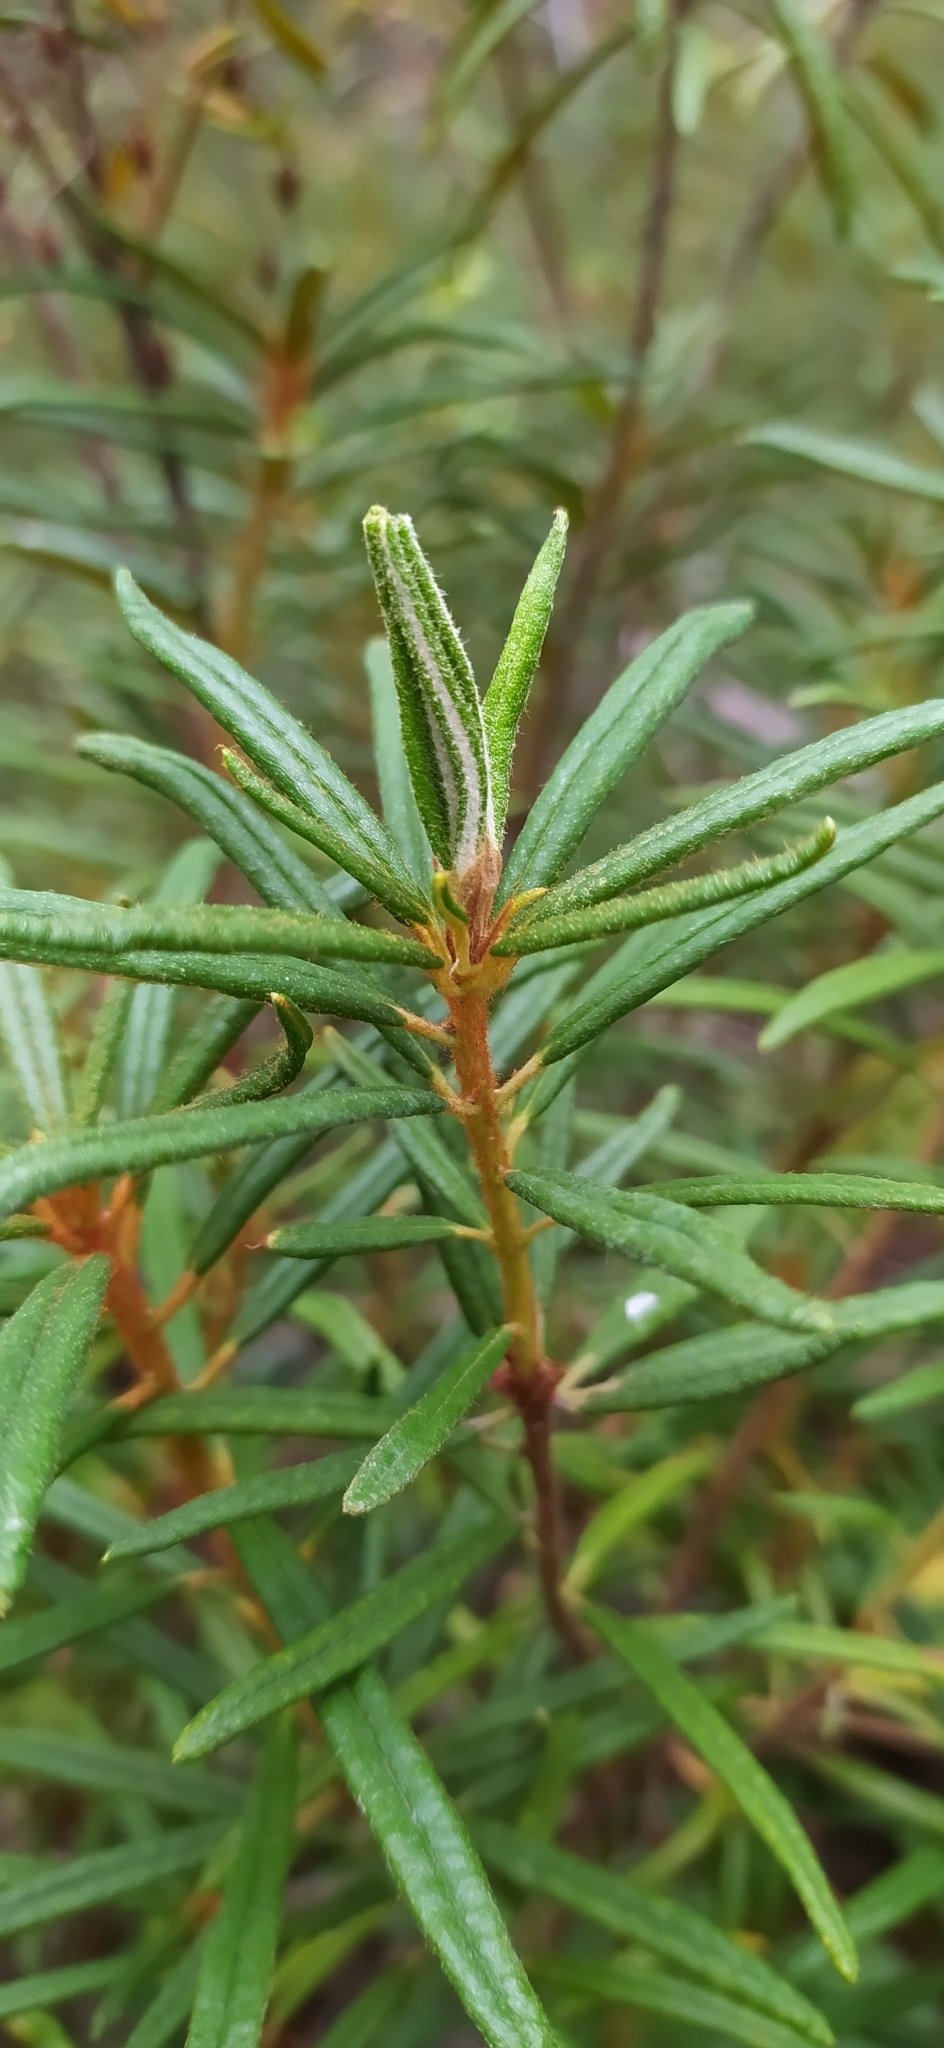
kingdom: Plantae
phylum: Tracheophyta
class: Magnoliopsida
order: Ericales
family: Ericaceae
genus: Rhododendron
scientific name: Rhododendron tomentosum
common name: Marsh labrador tea
